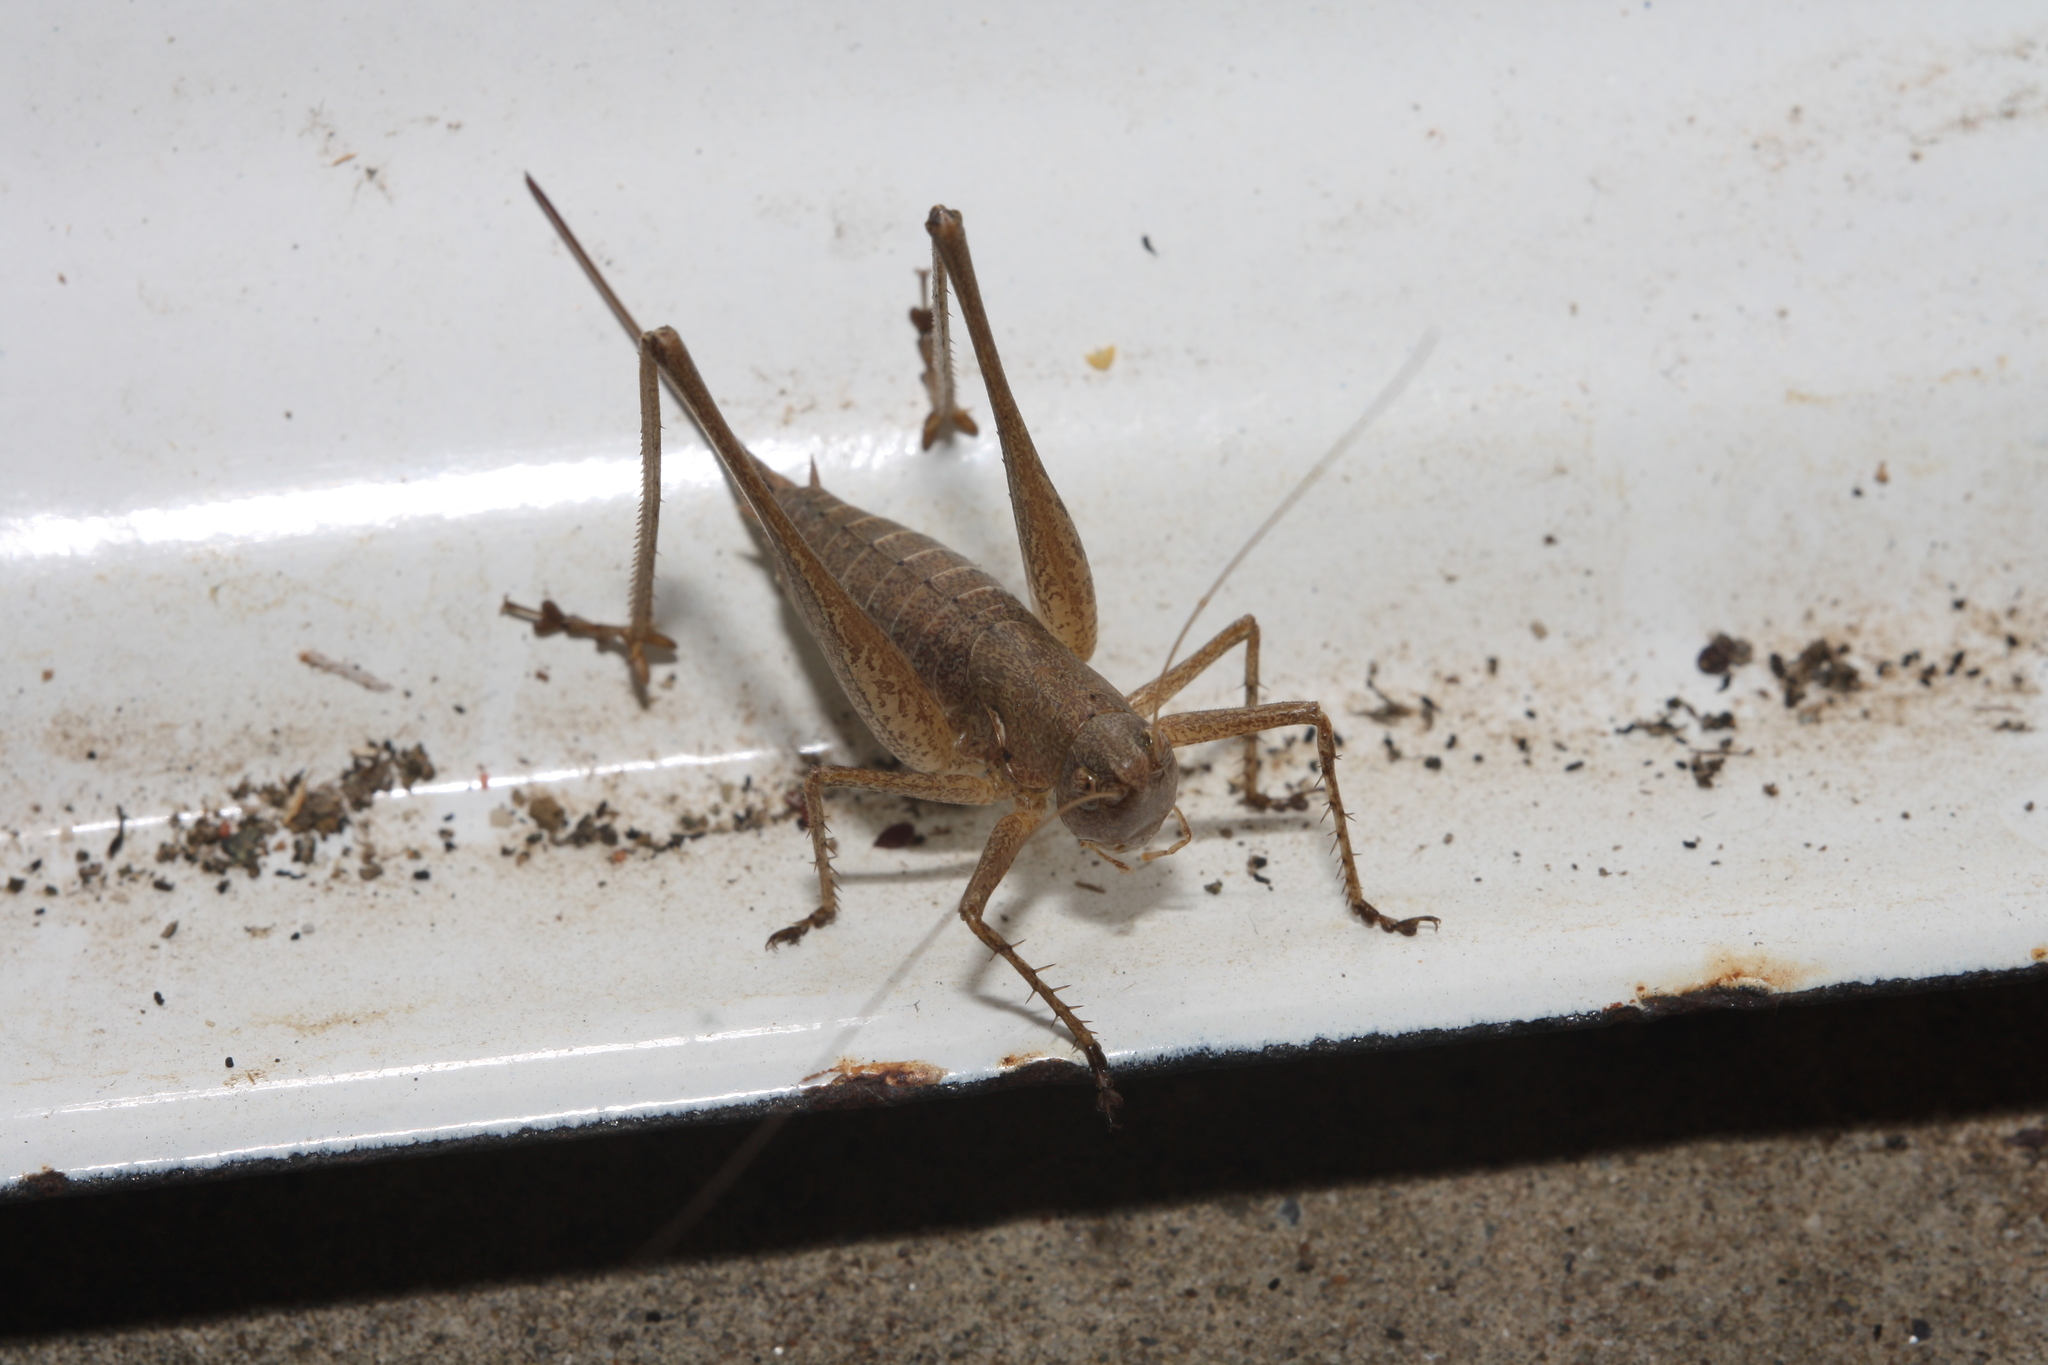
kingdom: Animalia
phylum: Arthropoda
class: Insecta
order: Orthoptera
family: Tettigoniidae
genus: Rhacocleis
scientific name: Rhacocleis germanica
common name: Mediterranean bush-cricket
